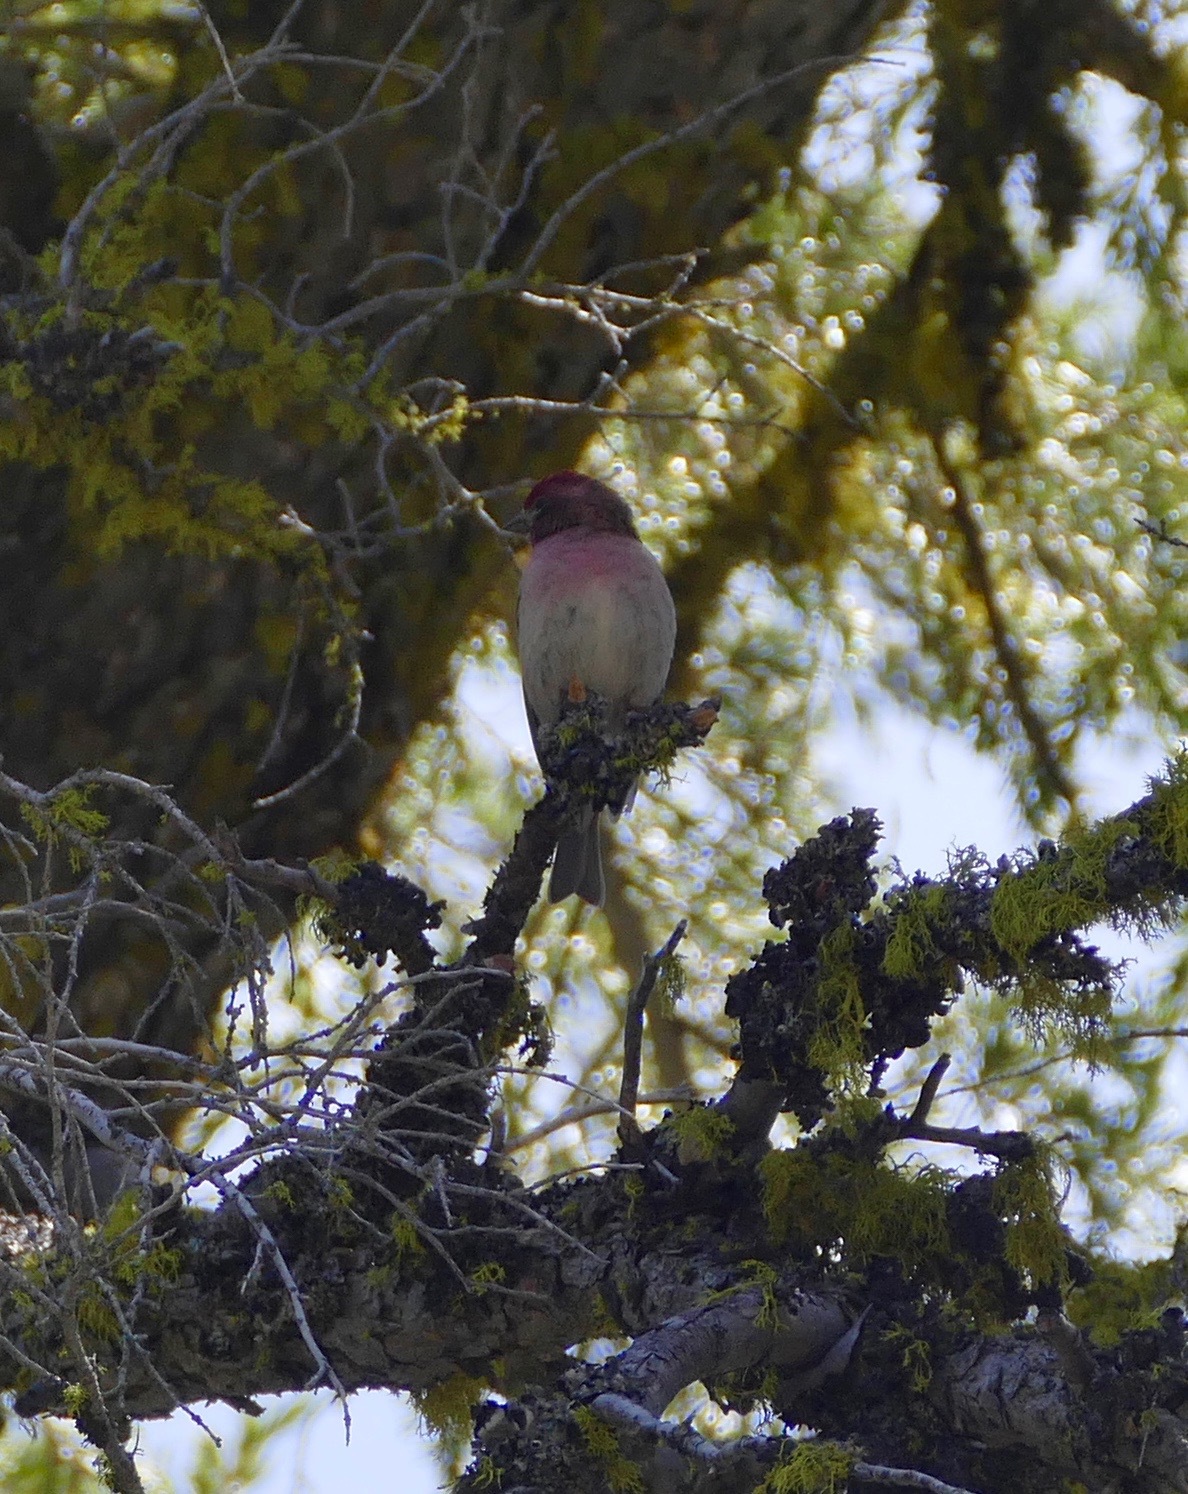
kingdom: Animalia
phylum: Chordata
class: Aves
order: Passeriformes
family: Fringillidae
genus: Haemorhous
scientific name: Haemorhous cassinii
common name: Cassin's finch
